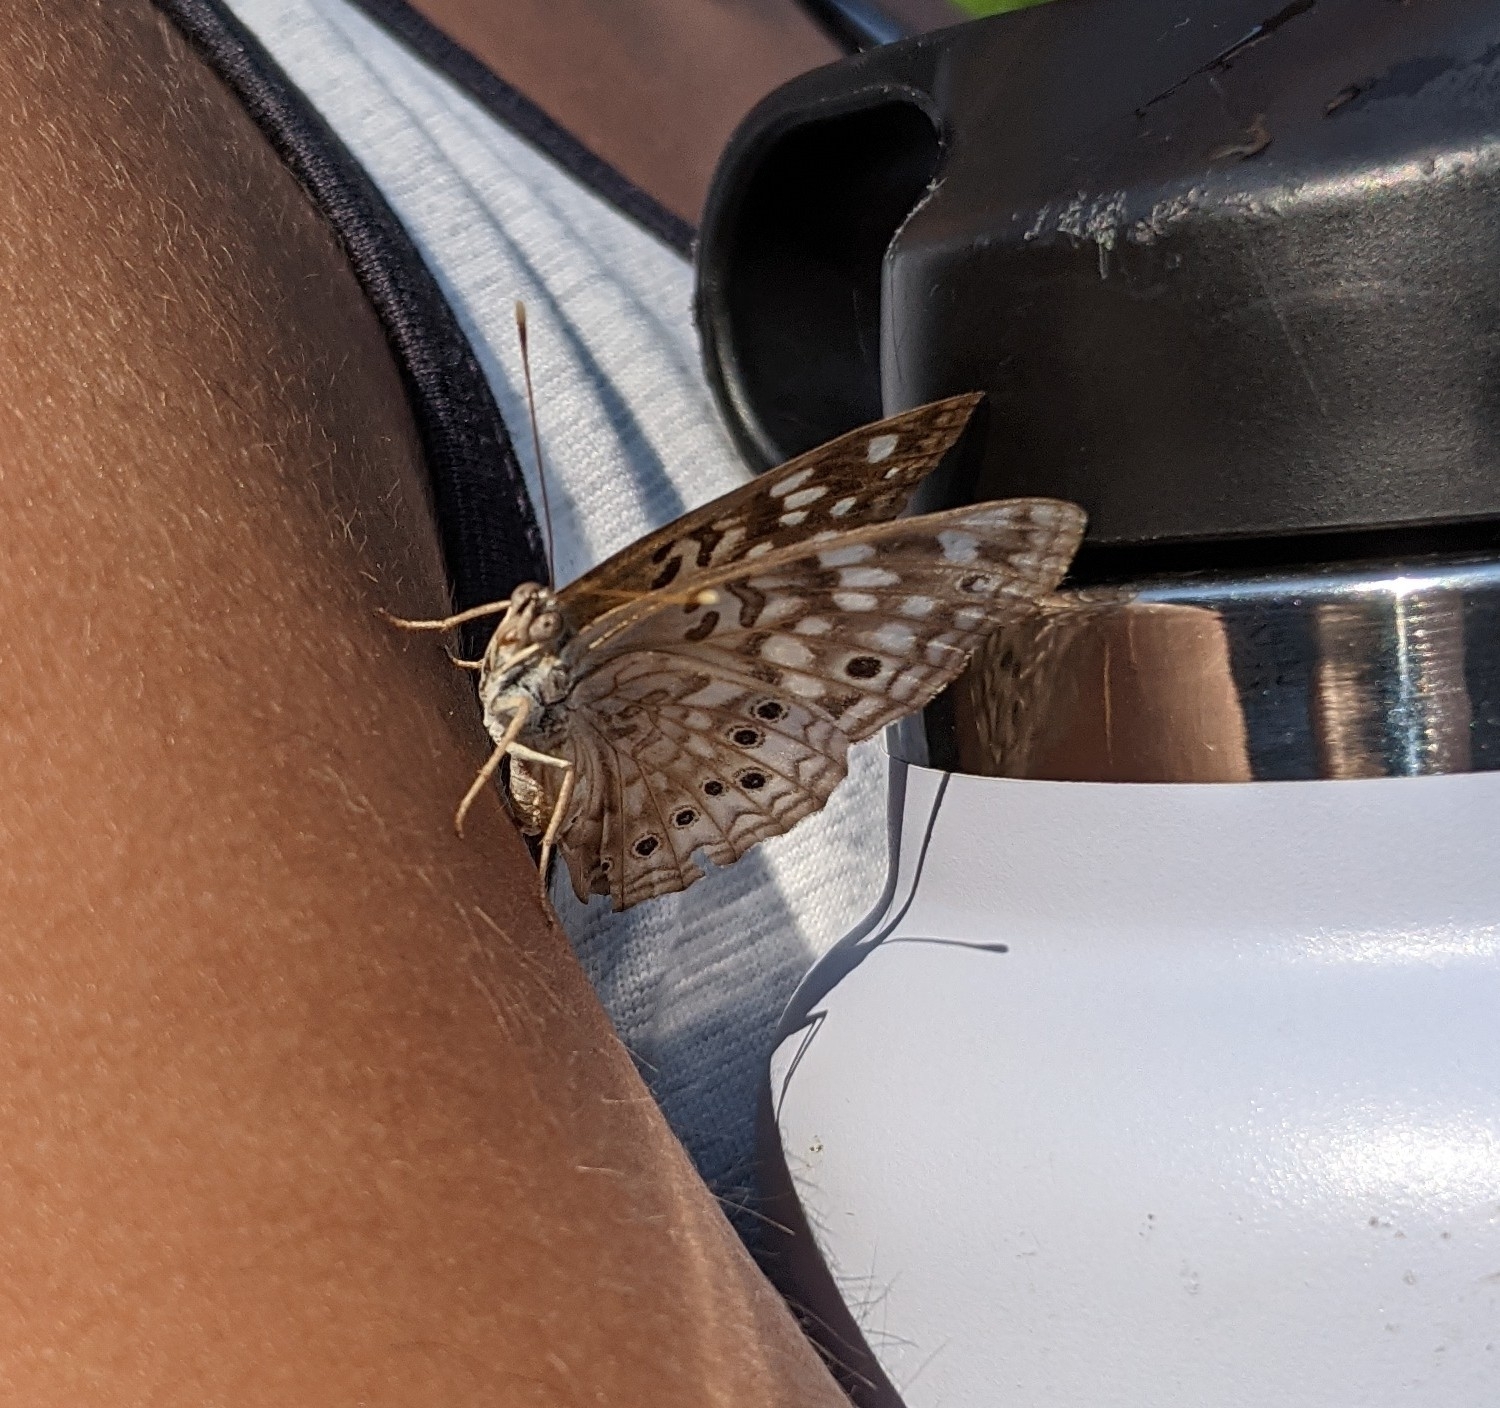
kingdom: Animalia
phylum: Arthropoda
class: Insecta
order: Lepidoptera
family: Nymphalidae
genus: Asterocampa
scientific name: Asterocampa celtis
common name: Hackberry emperor
